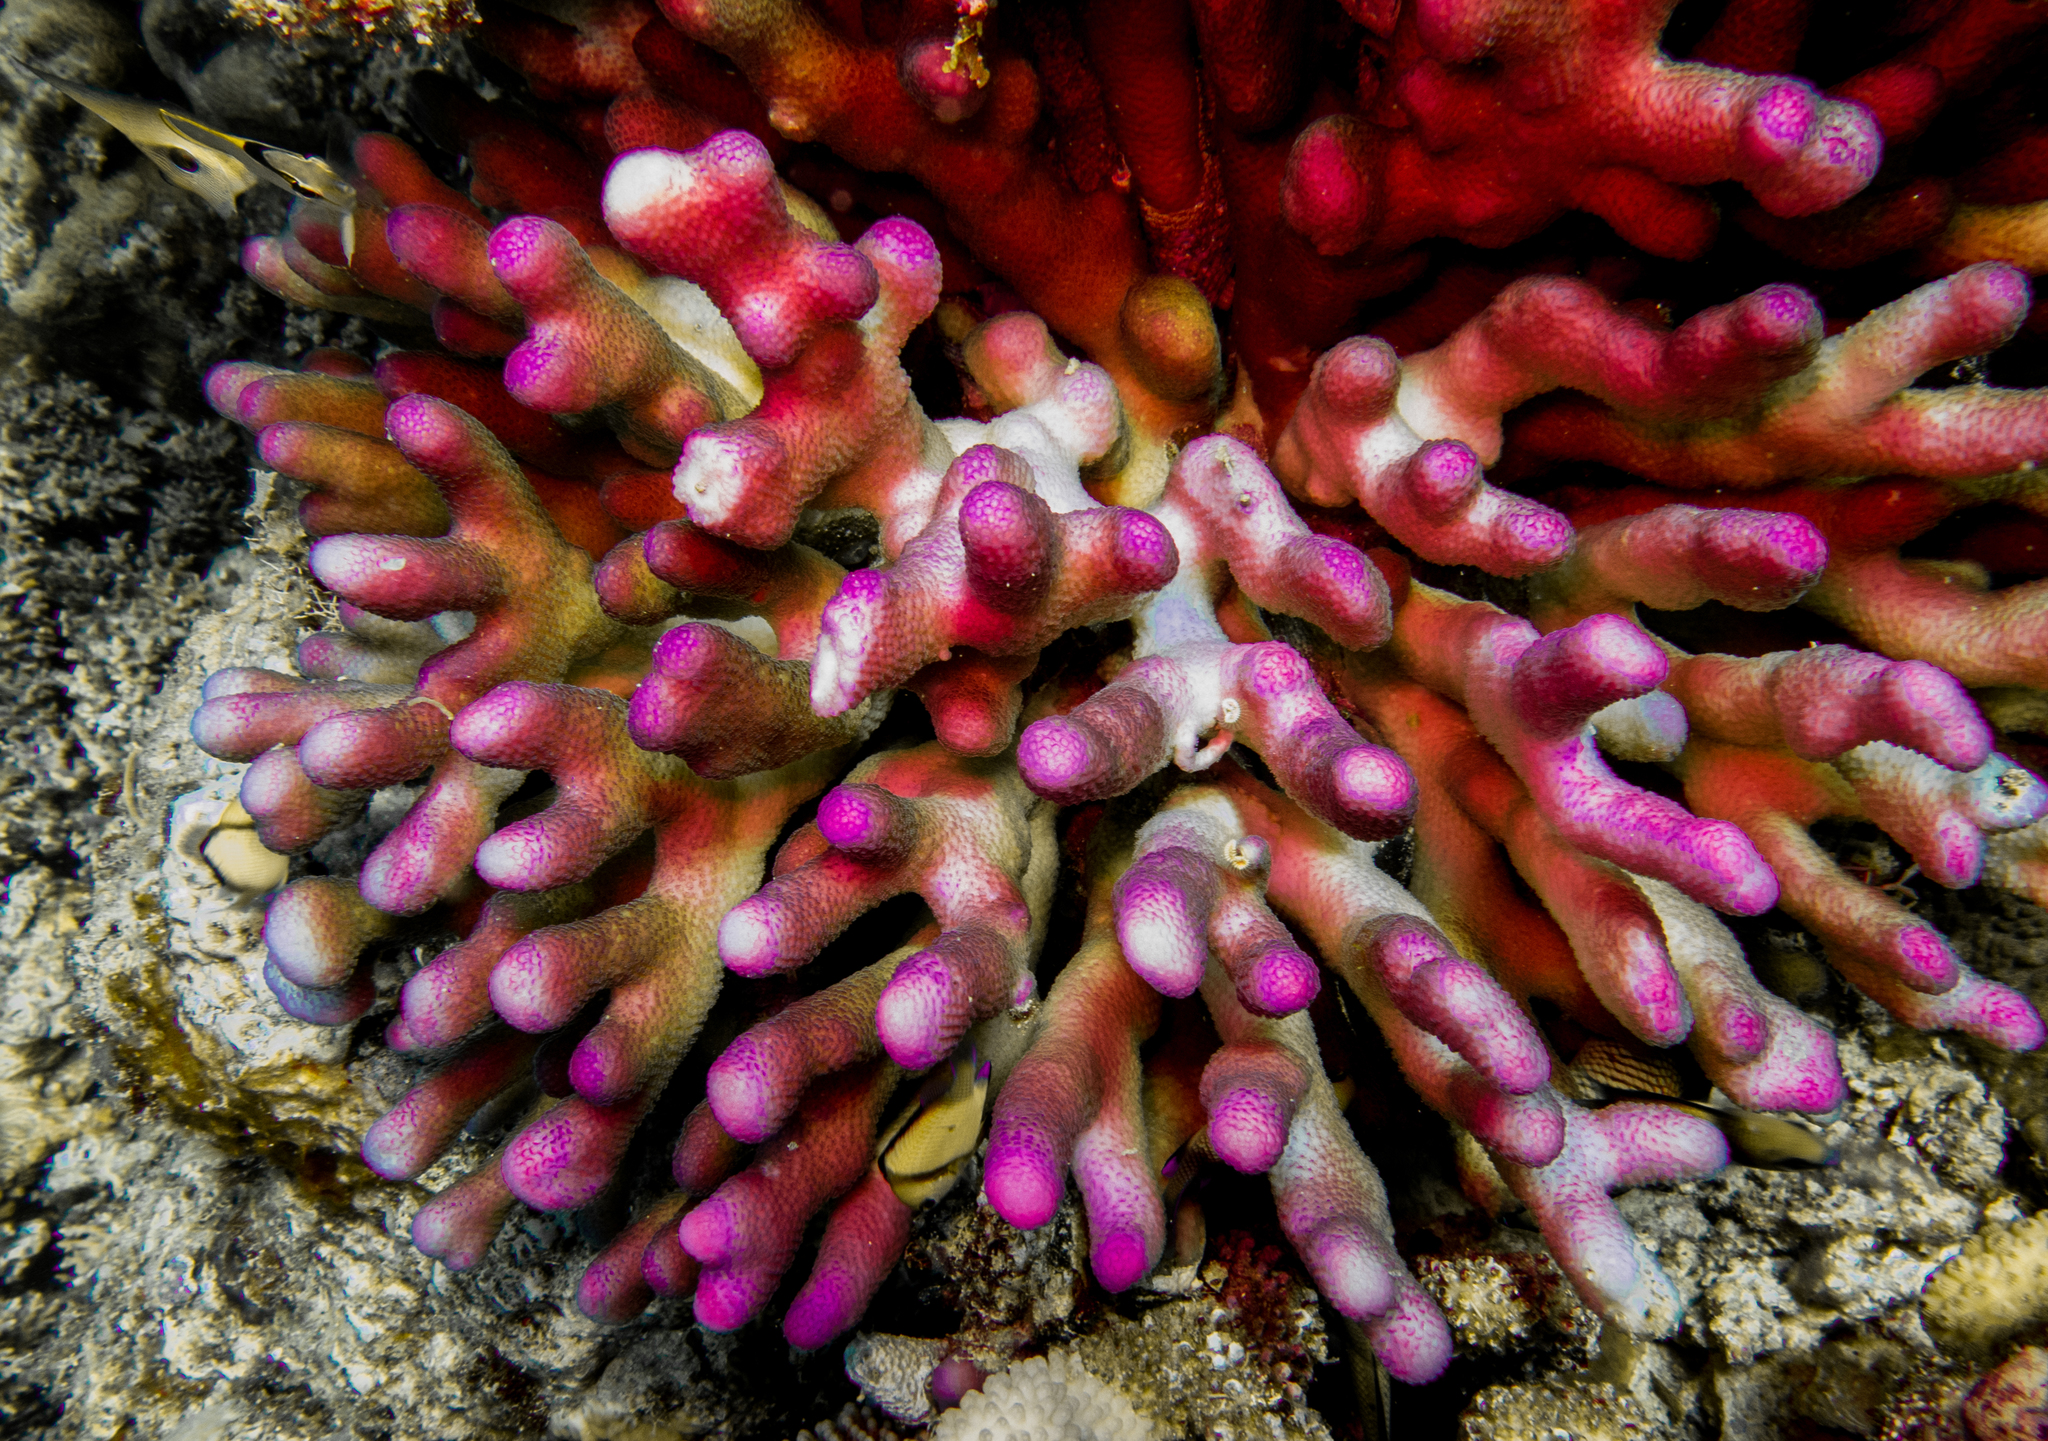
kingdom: Animalia
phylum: Cnidaria
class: Anthozoa
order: Scleractinia
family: Pocilloporidae
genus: Stylophora
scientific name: Stylophora pistillata
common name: Hood coral
